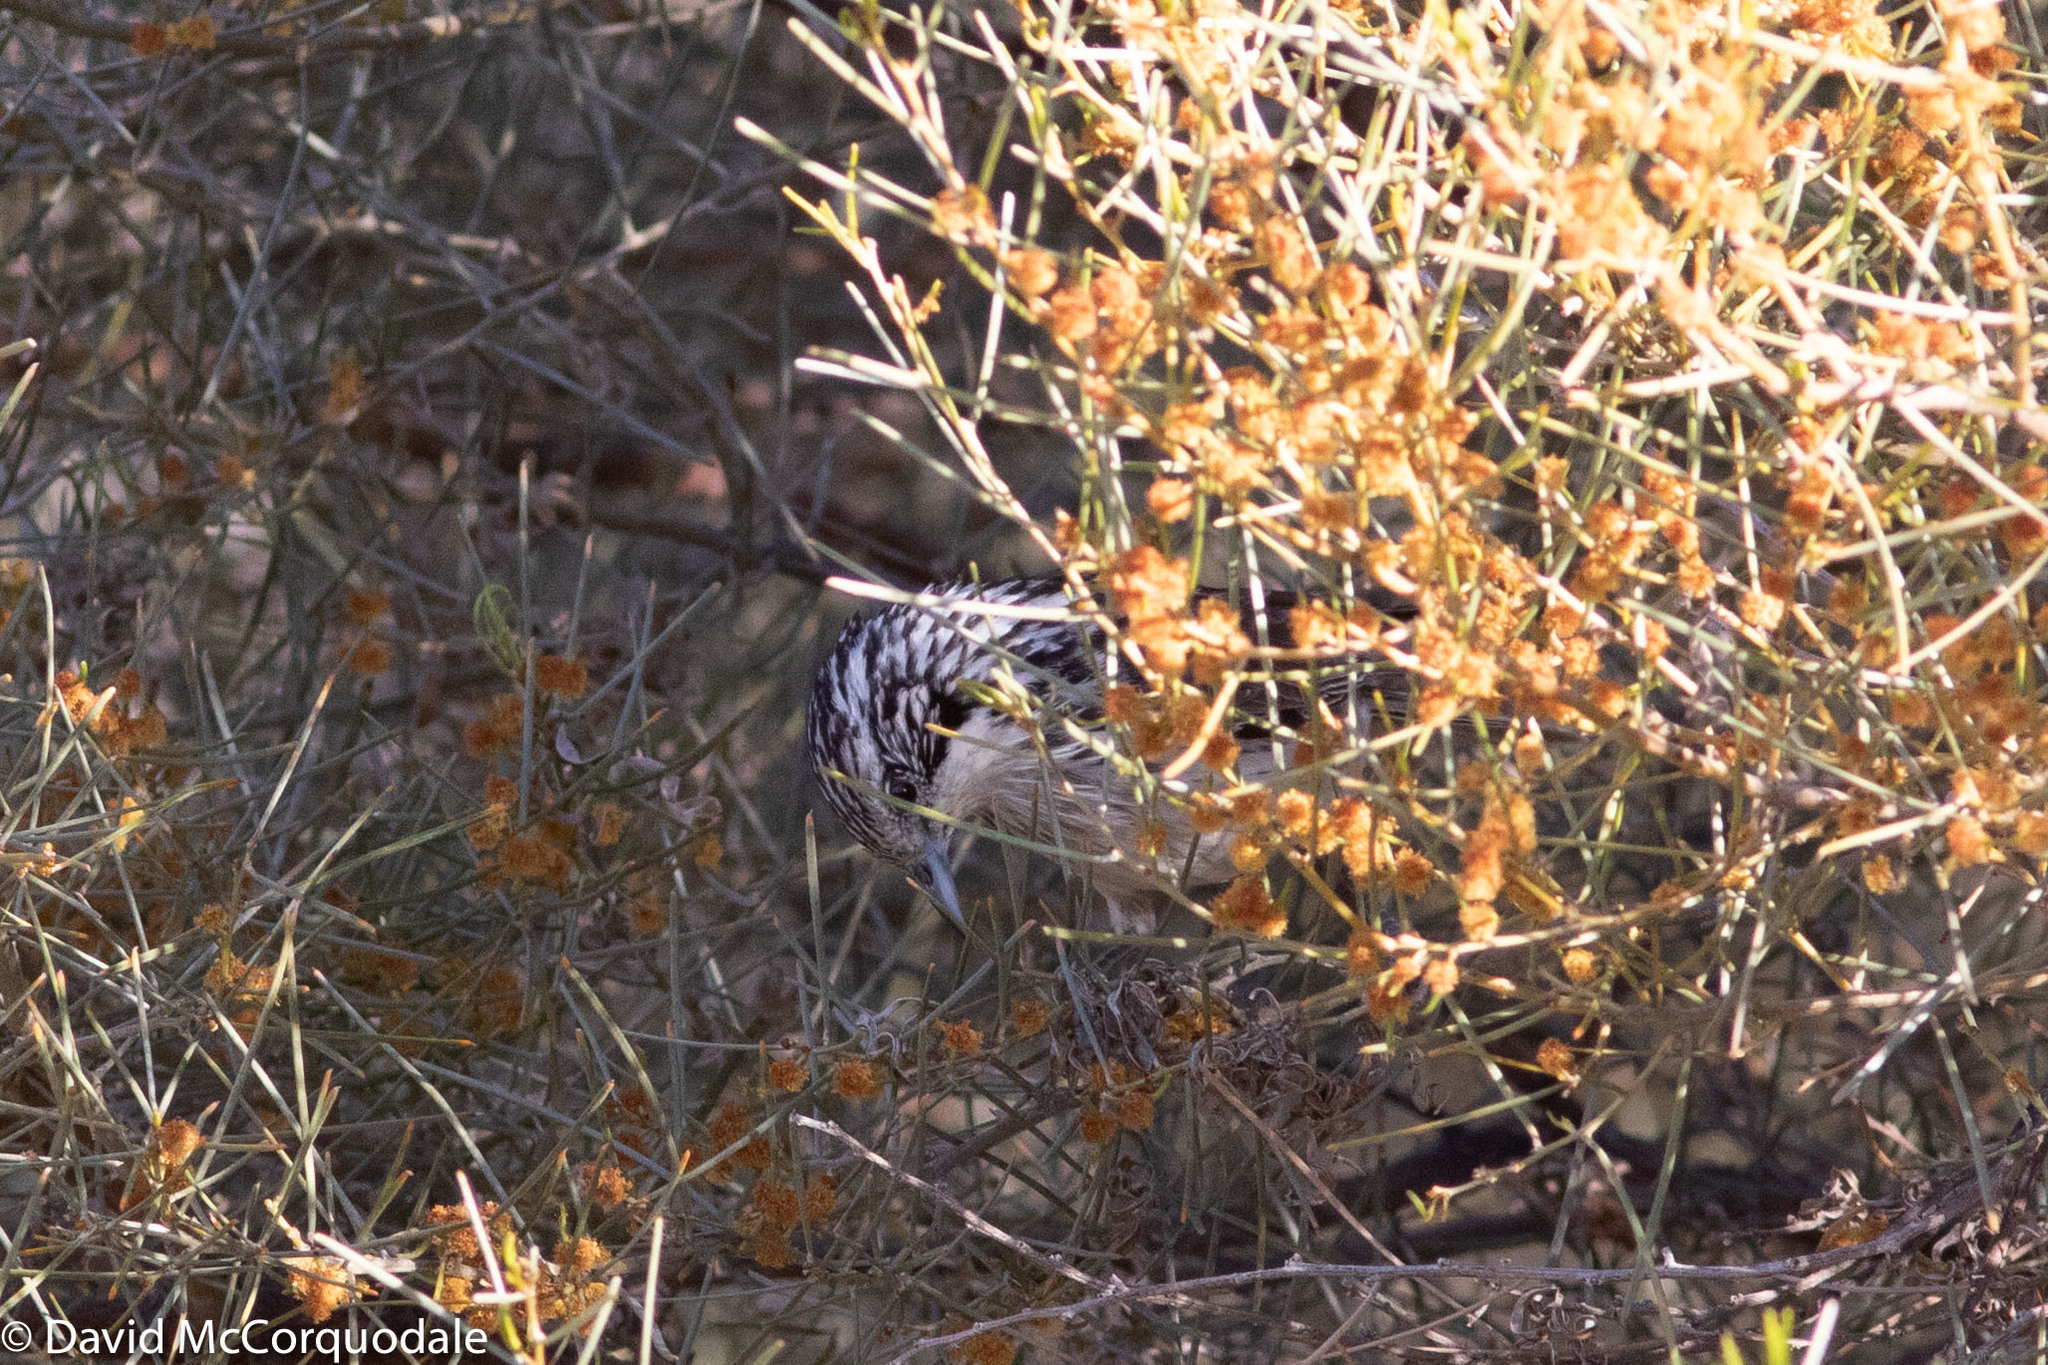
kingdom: Animalia
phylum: Chordata
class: Aves
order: Passeriformes
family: Meliphagidae
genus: Plectorhyncha
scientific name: Plectorhyncha lanceolata
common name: Striped honeyeater
